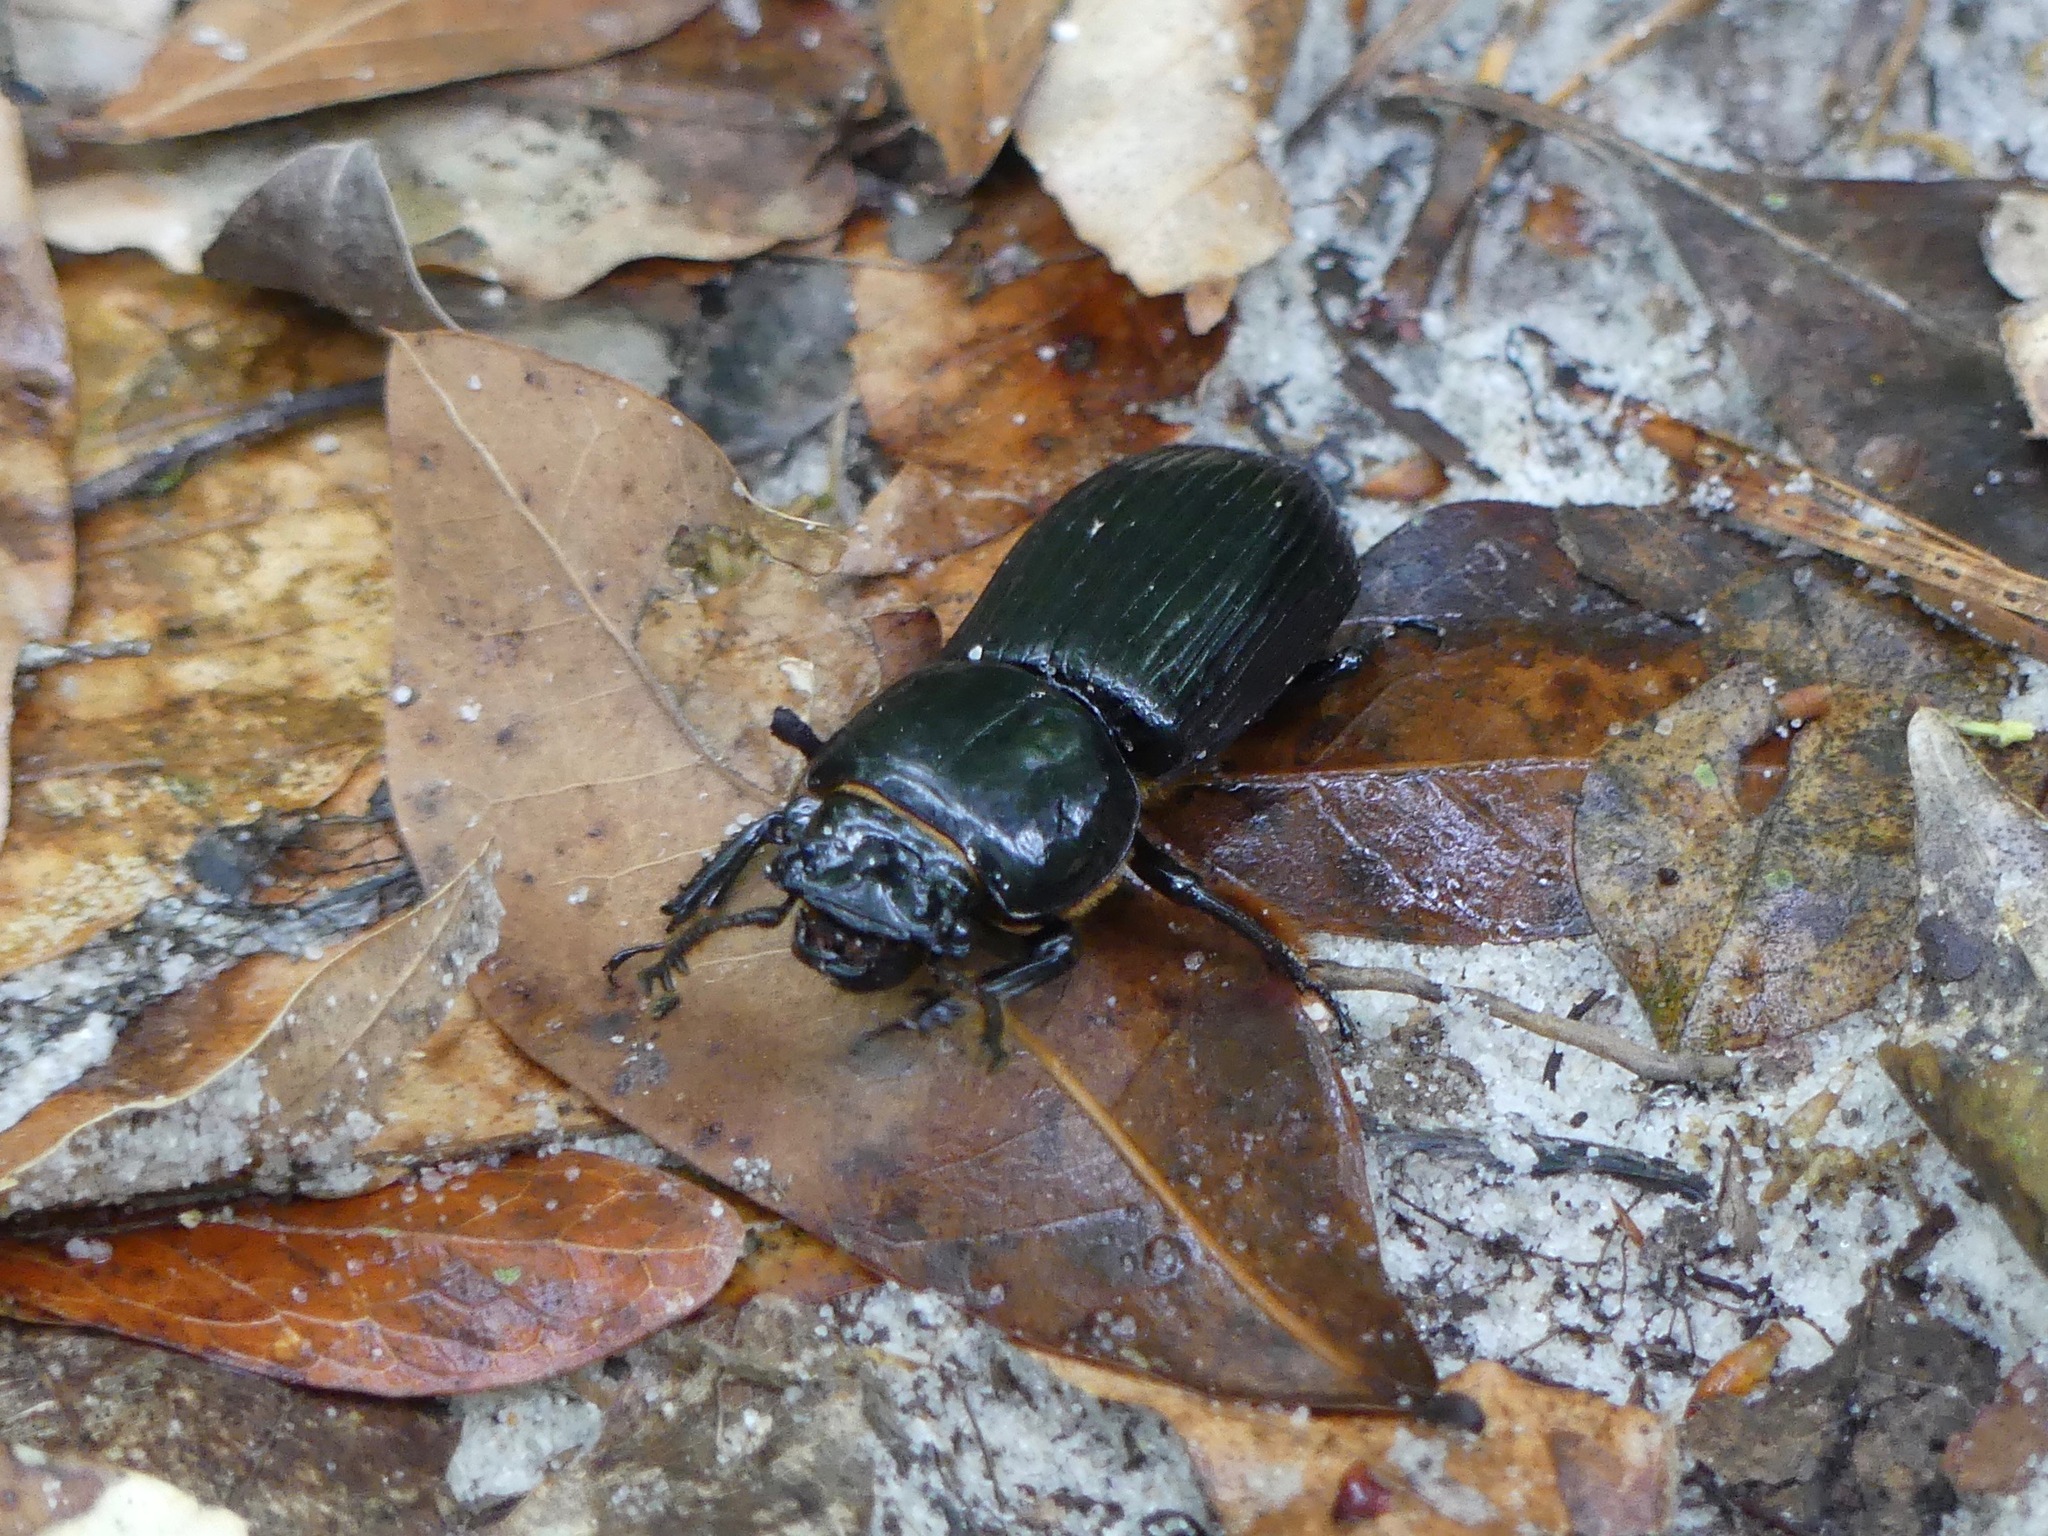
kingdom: Animalia
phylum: Arthropoda
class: Insecta
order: Coleoptera
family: Passalidae
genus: Odontotaenius
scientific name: Odontotaenius disjunctus
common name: Patent leather beetle
